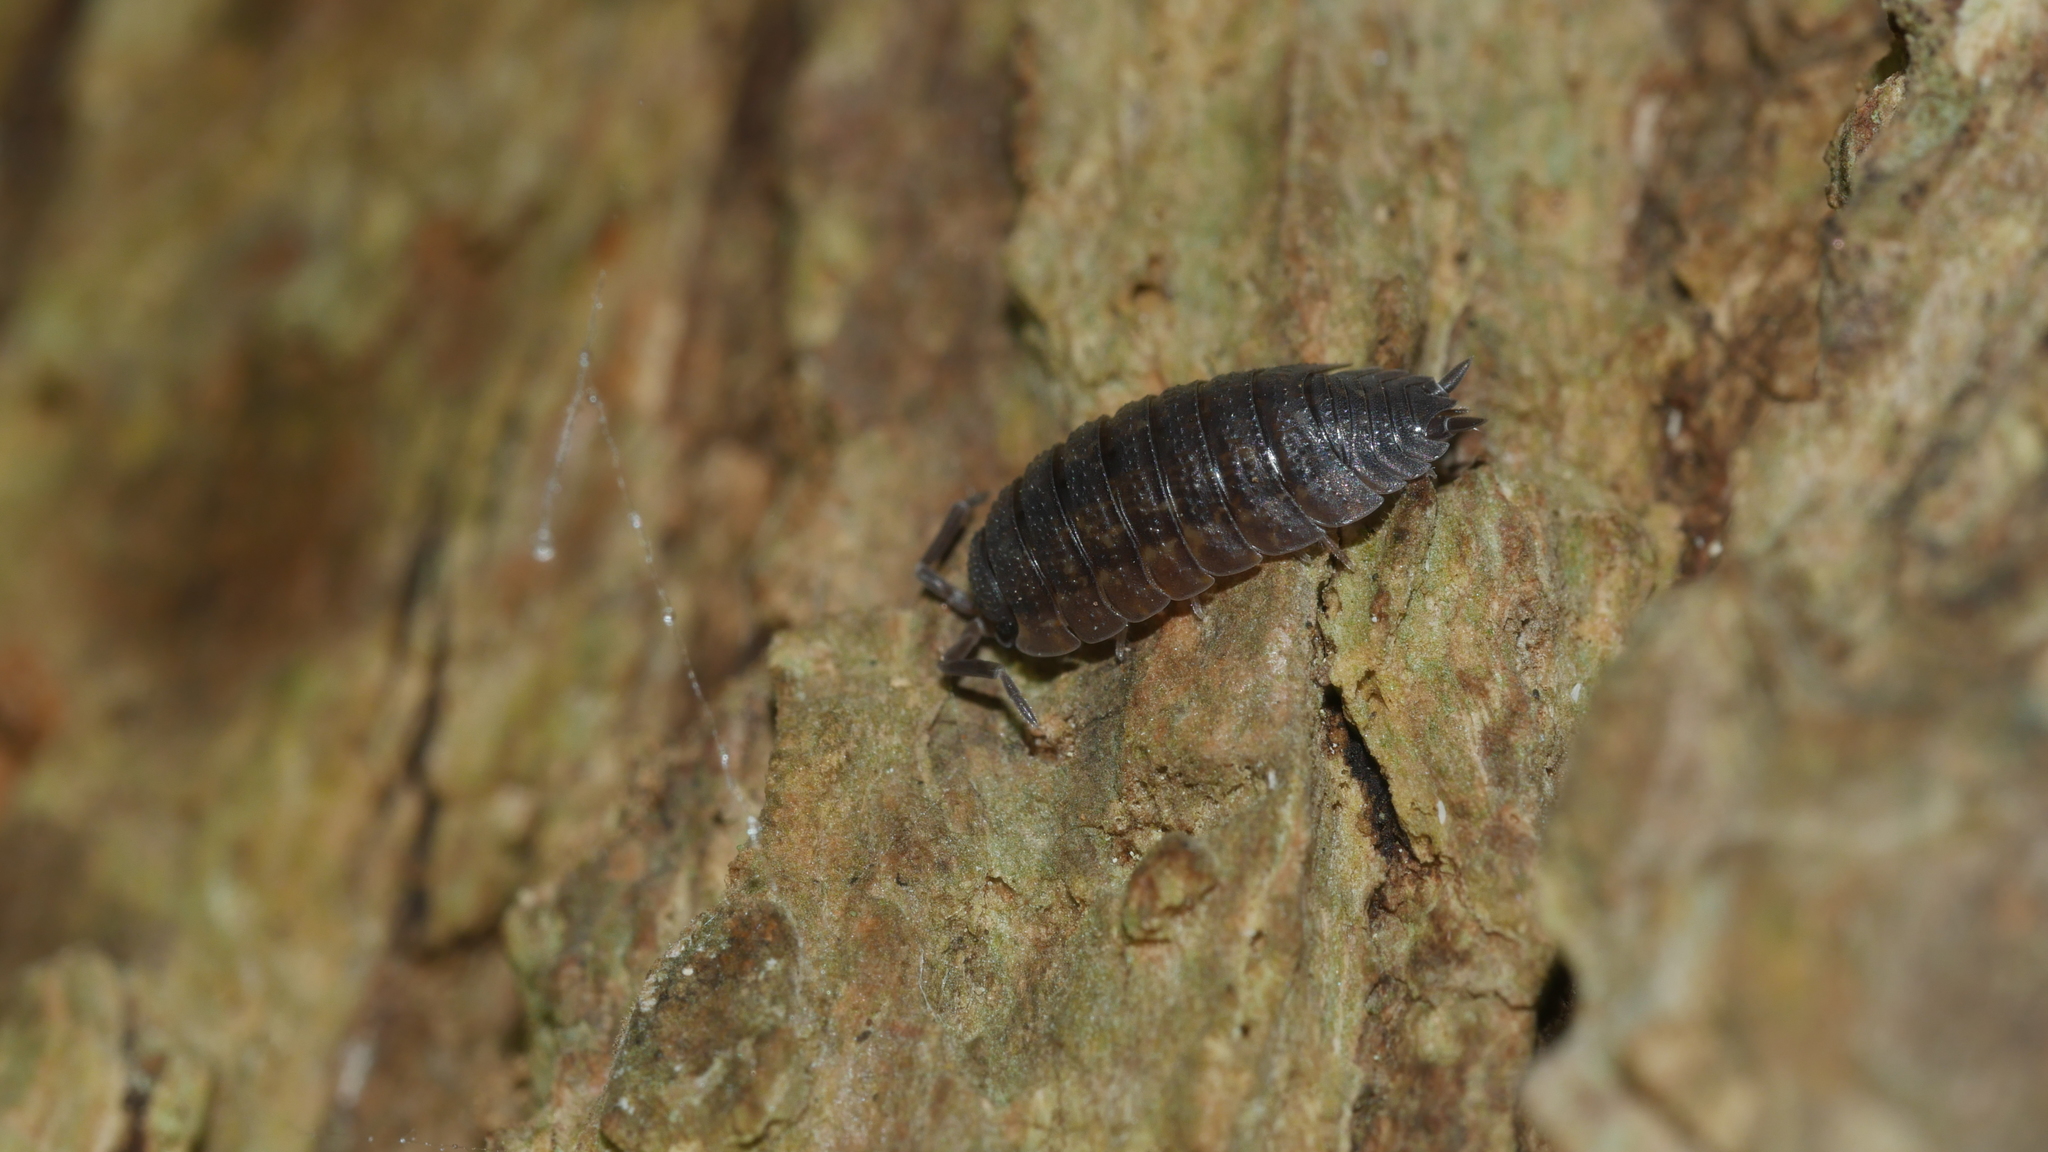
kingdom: Animalia
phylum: Arthropoda
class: Malacostraca
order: Isopoda
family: Porcellionidae
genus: Porcellio
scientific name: Porcellio scaber
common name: Common rough woodlouse
